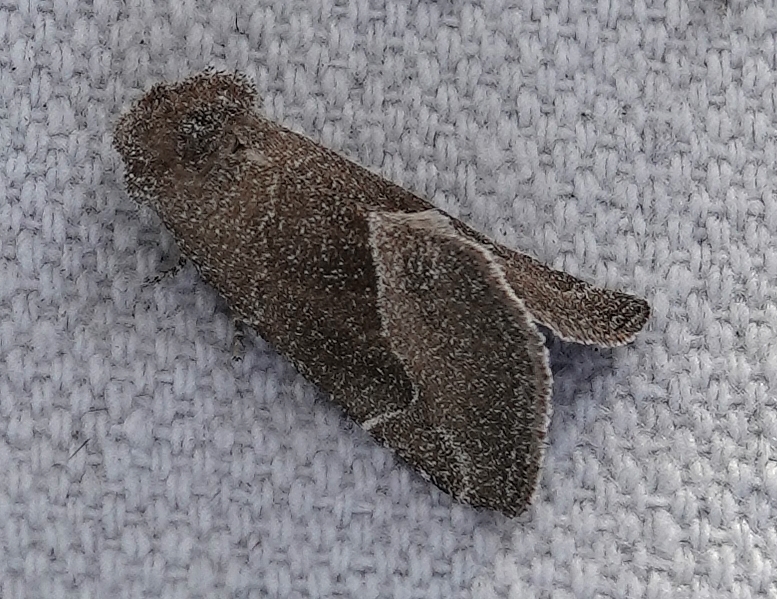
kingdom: Animalia
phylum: Arthropoda
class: Insecta
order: Lepidoptera
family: Noctuidae
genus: Plagiomimicus
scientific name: Plagiomimicus spumosum
